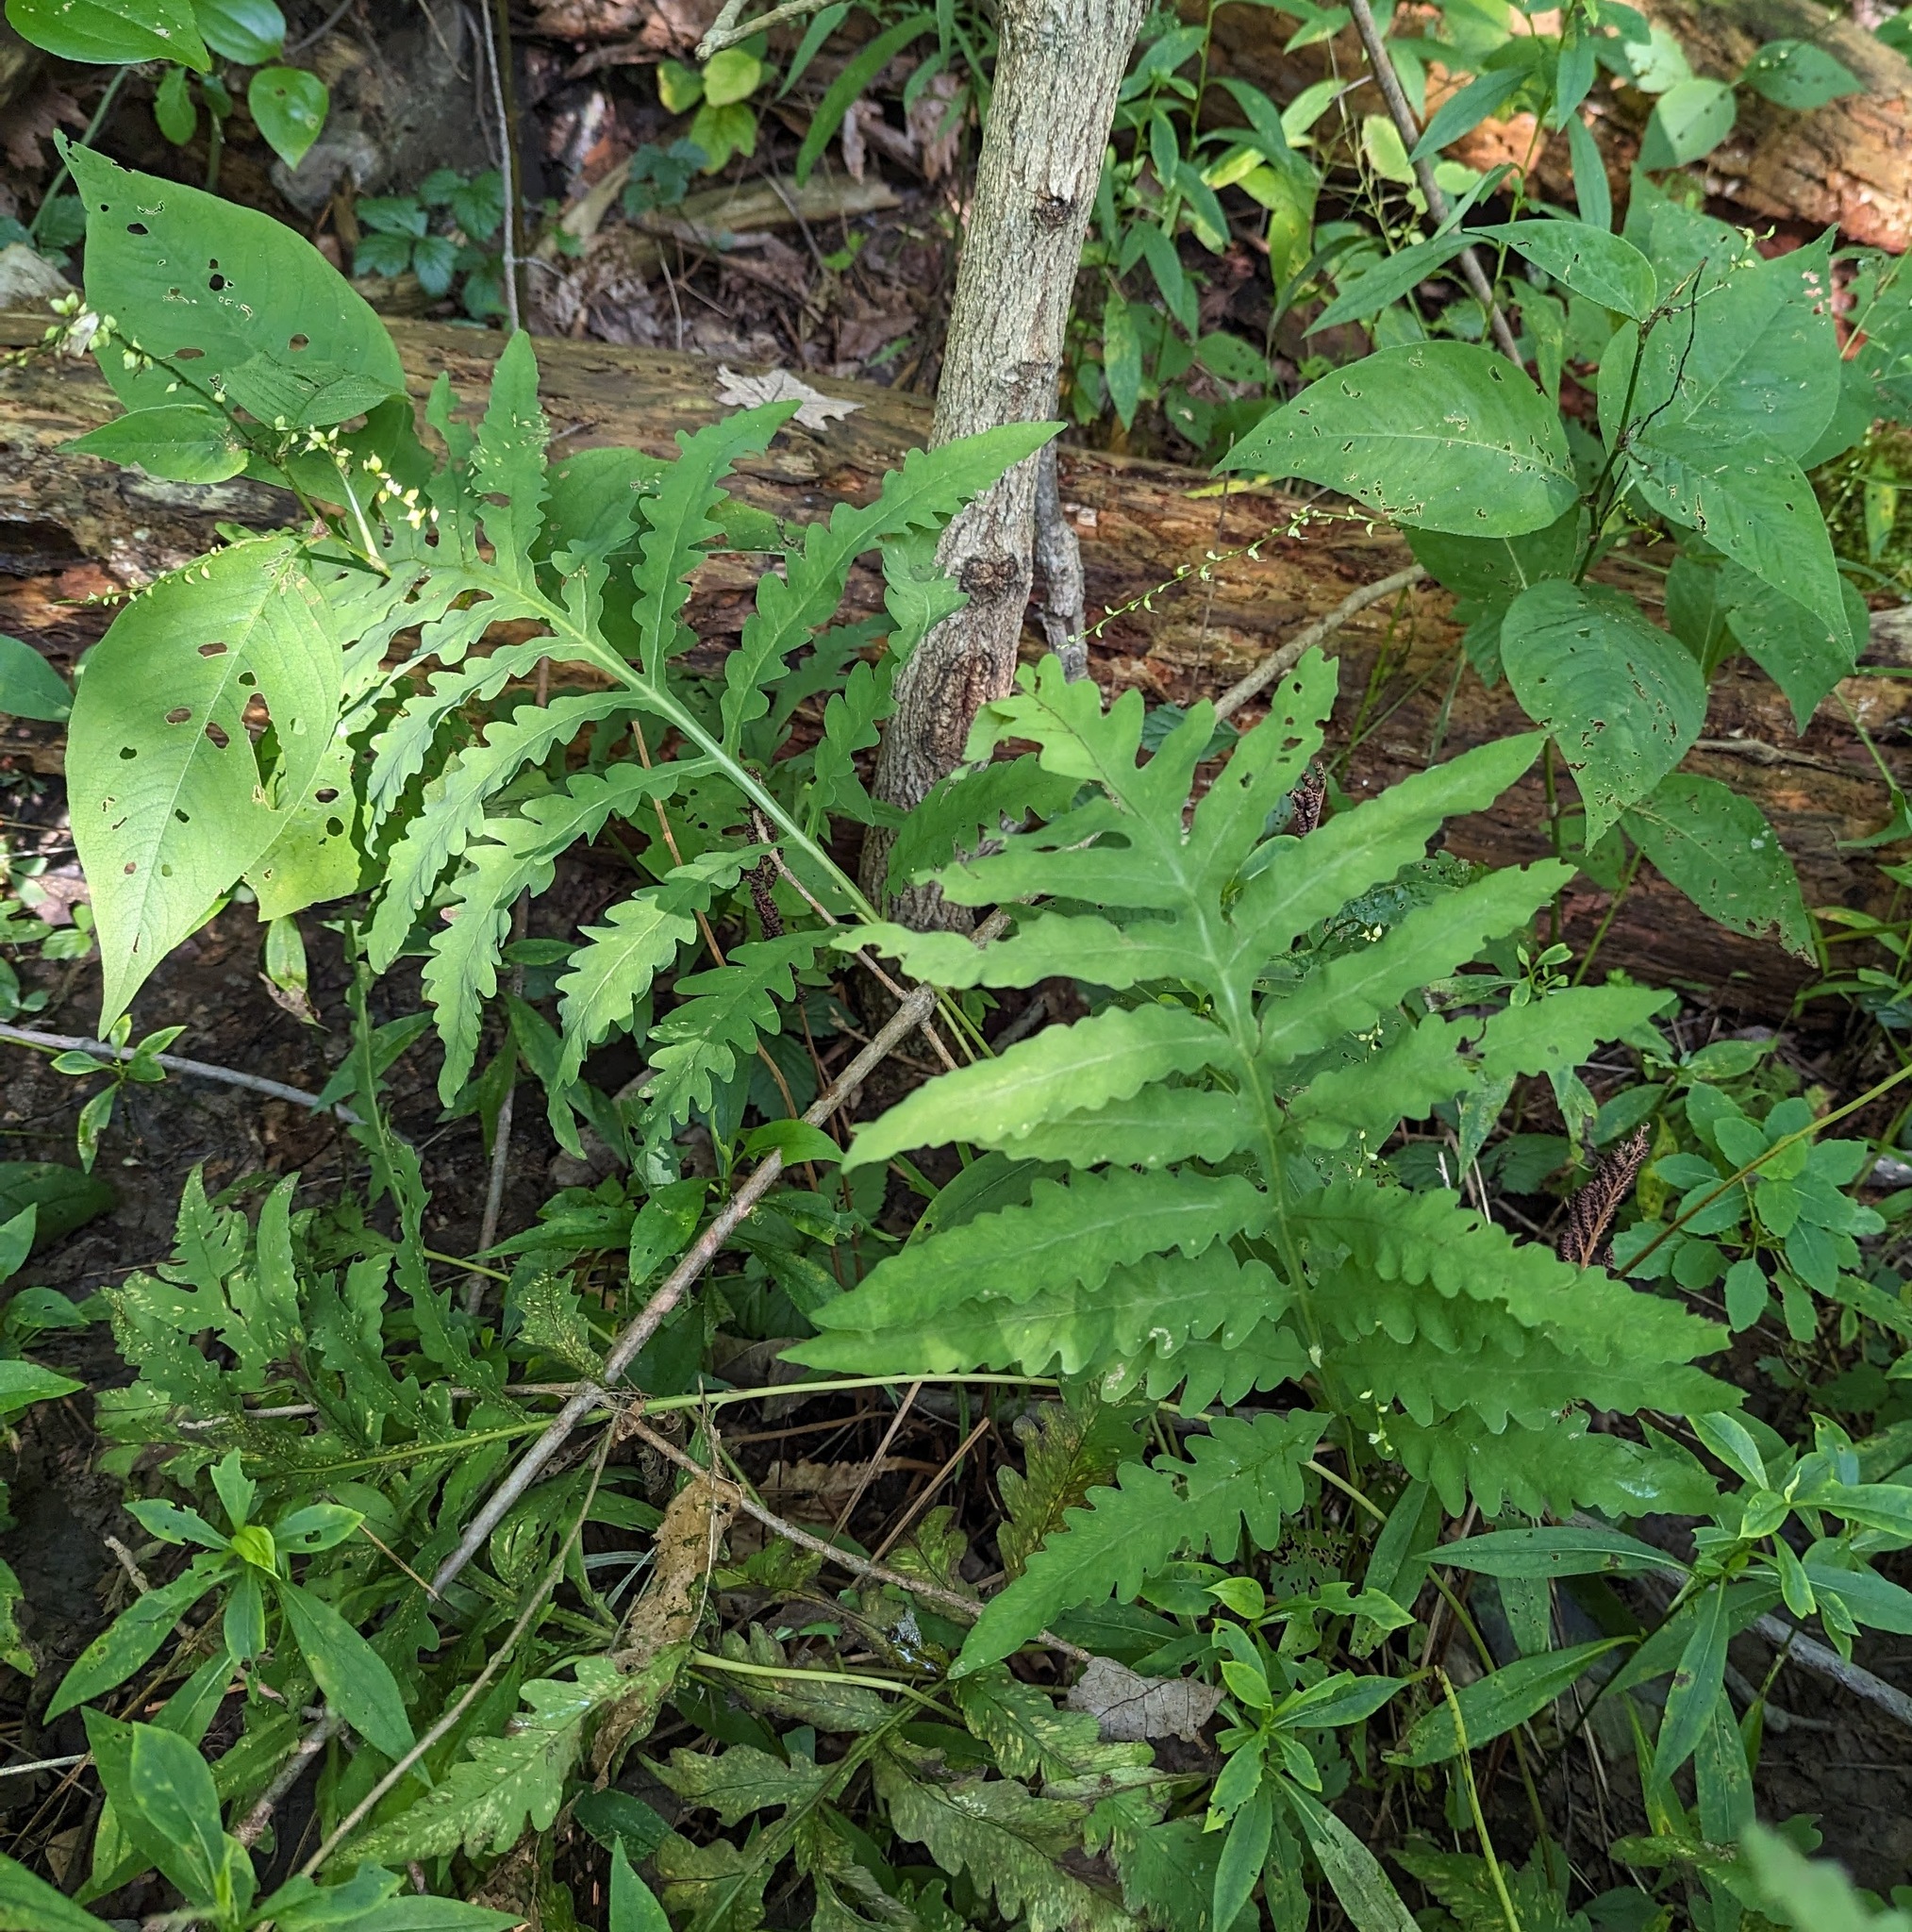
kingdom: Plantae
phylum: Tracheophyta
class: Polypodiopsida
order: Polypodiales
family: Onocleaceae
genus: Onoclea
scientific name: Onoclea sensibilis
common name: Sensitive fern
